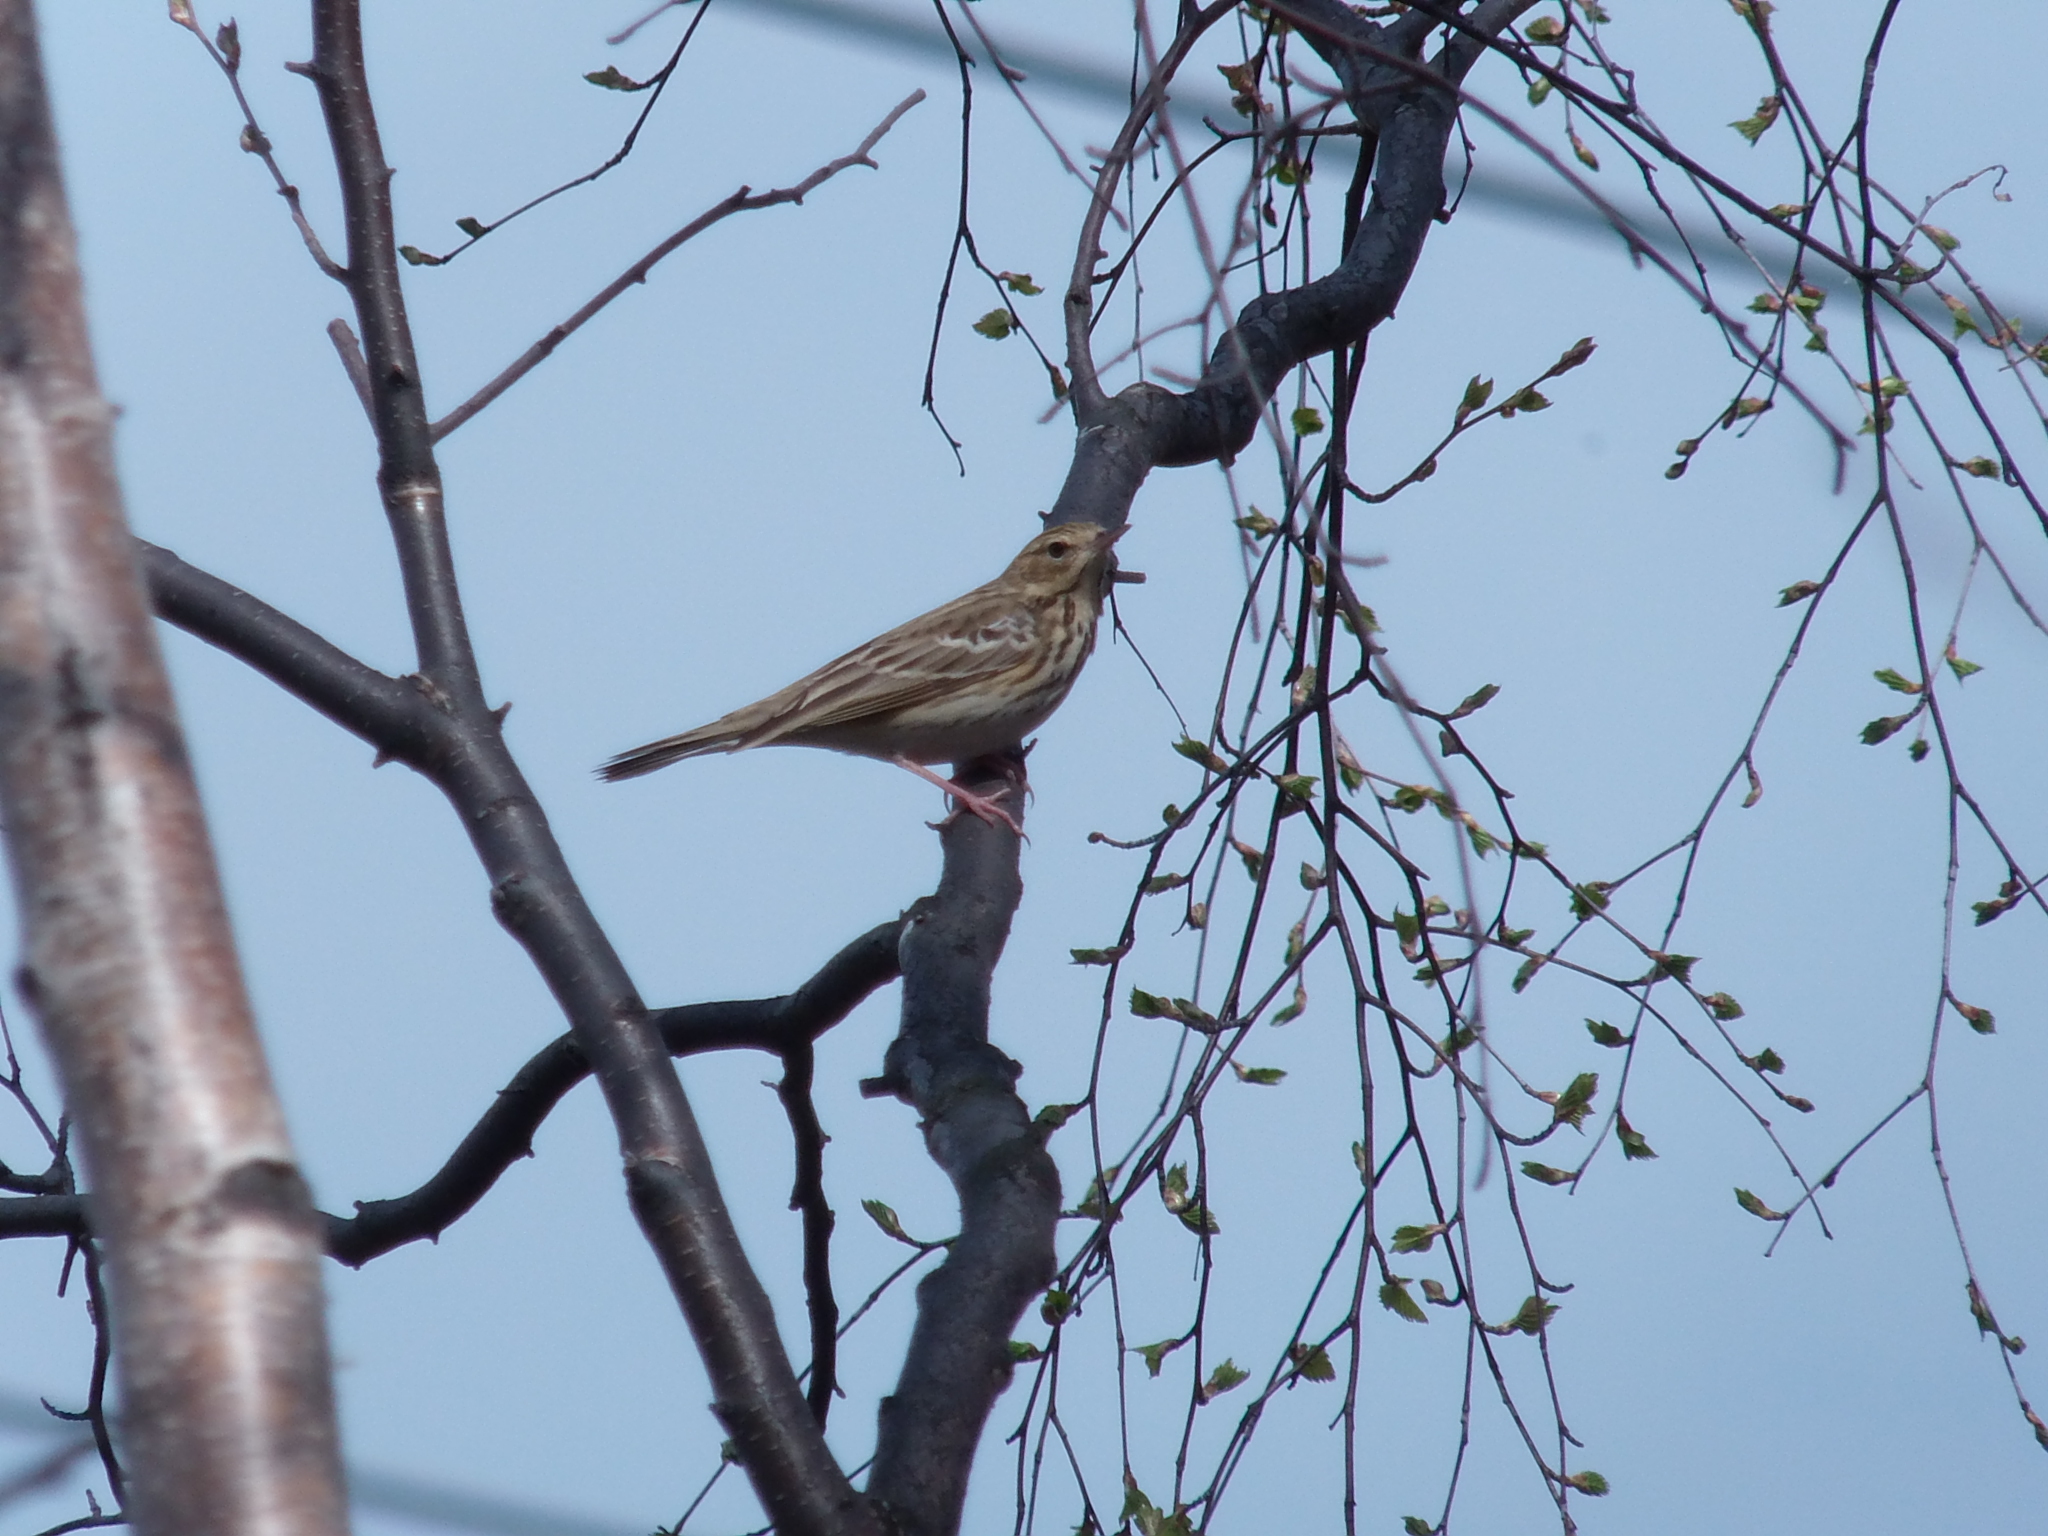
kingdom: Animalia
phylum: Chordata
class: Aves
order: Passeriformes
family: Motacillidae
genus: Anthus
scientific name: Anthus trivialis
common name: Tree pipit
